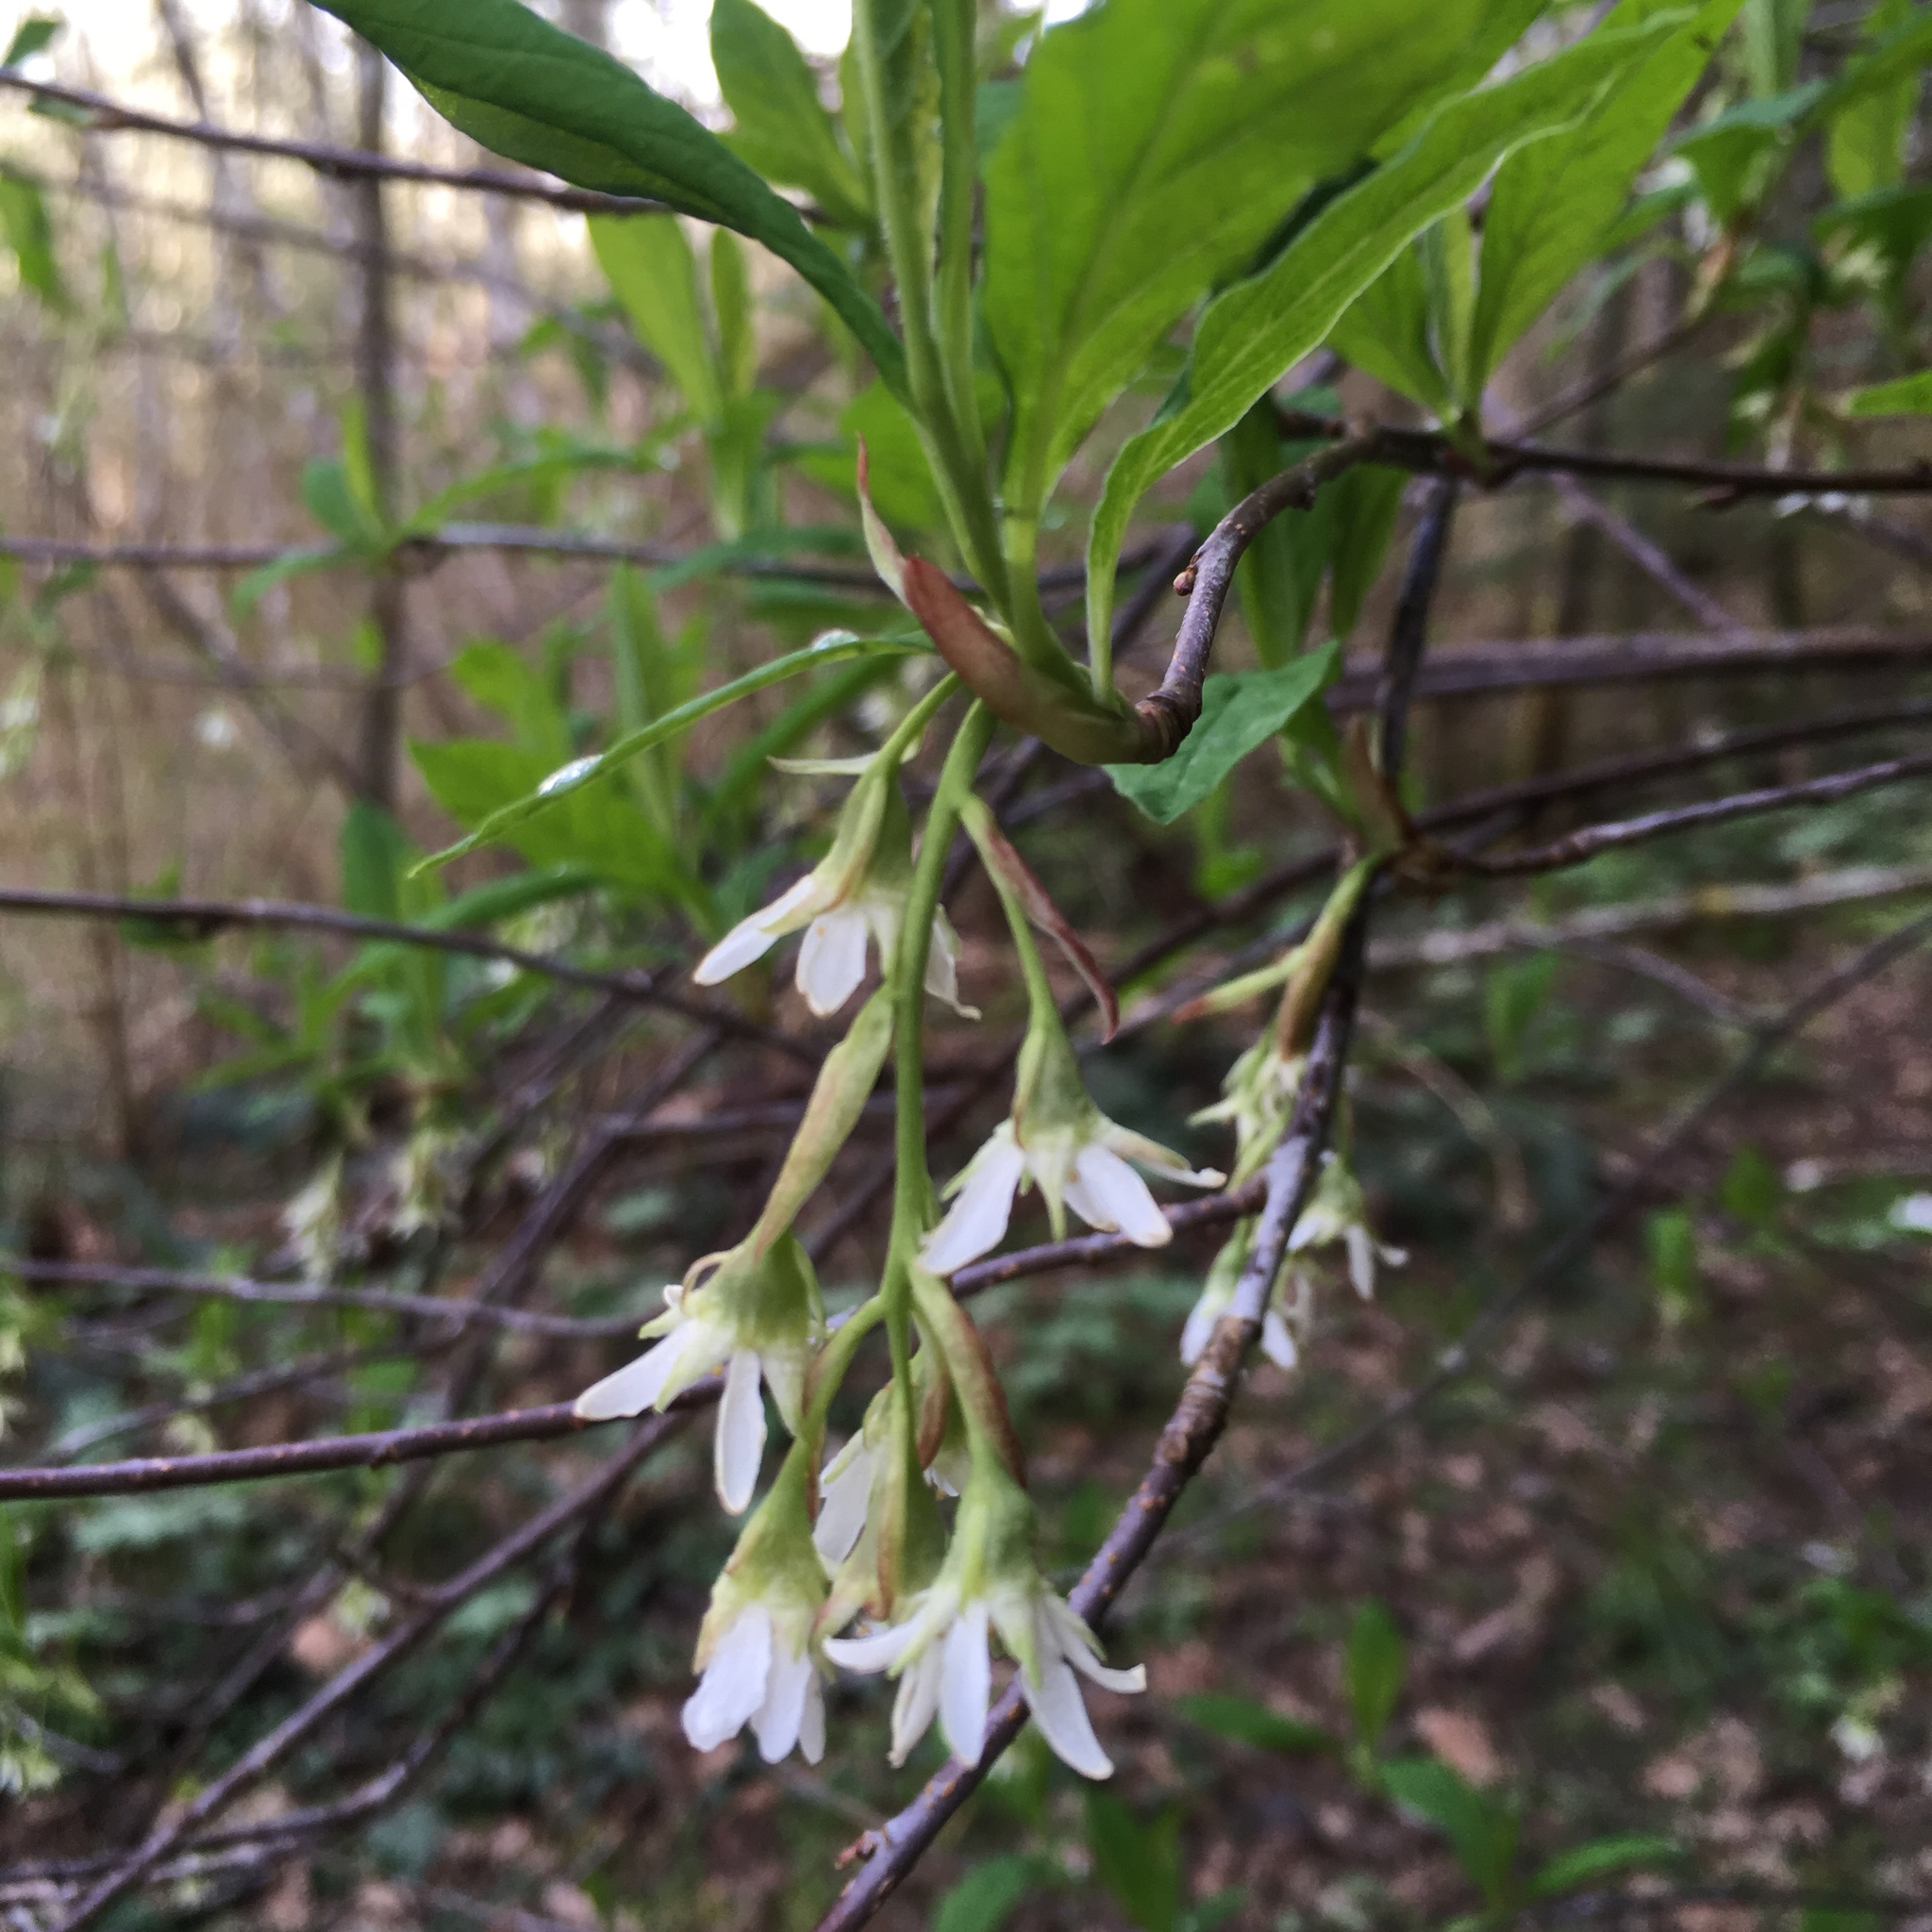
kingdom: Plantae
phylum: Tracheophyta
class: Magnoliopsida
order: Rosales
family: Rosaceae
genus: Oemleria
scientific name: Oemleria cerasiformis
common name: Osoberry
